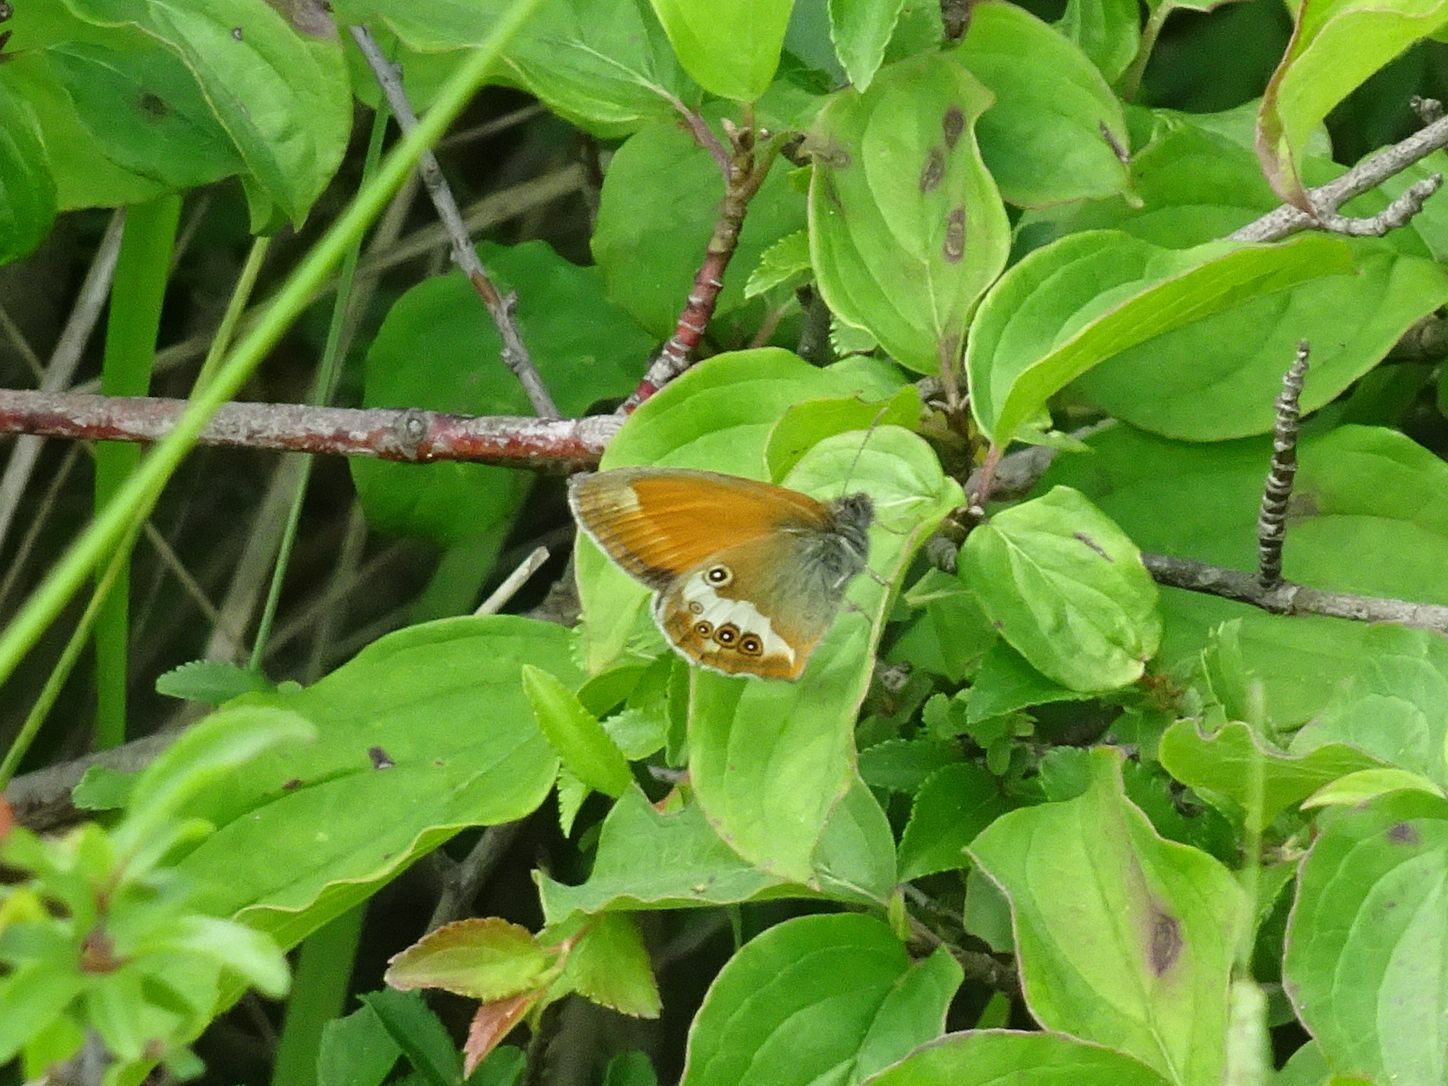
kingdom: Animalia
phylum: Arthropoda
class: Insecta
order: Lepidoptera
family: Nymphalidae
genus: Coenonympha
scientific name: Coenonympha arcania
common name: Pearly heath
